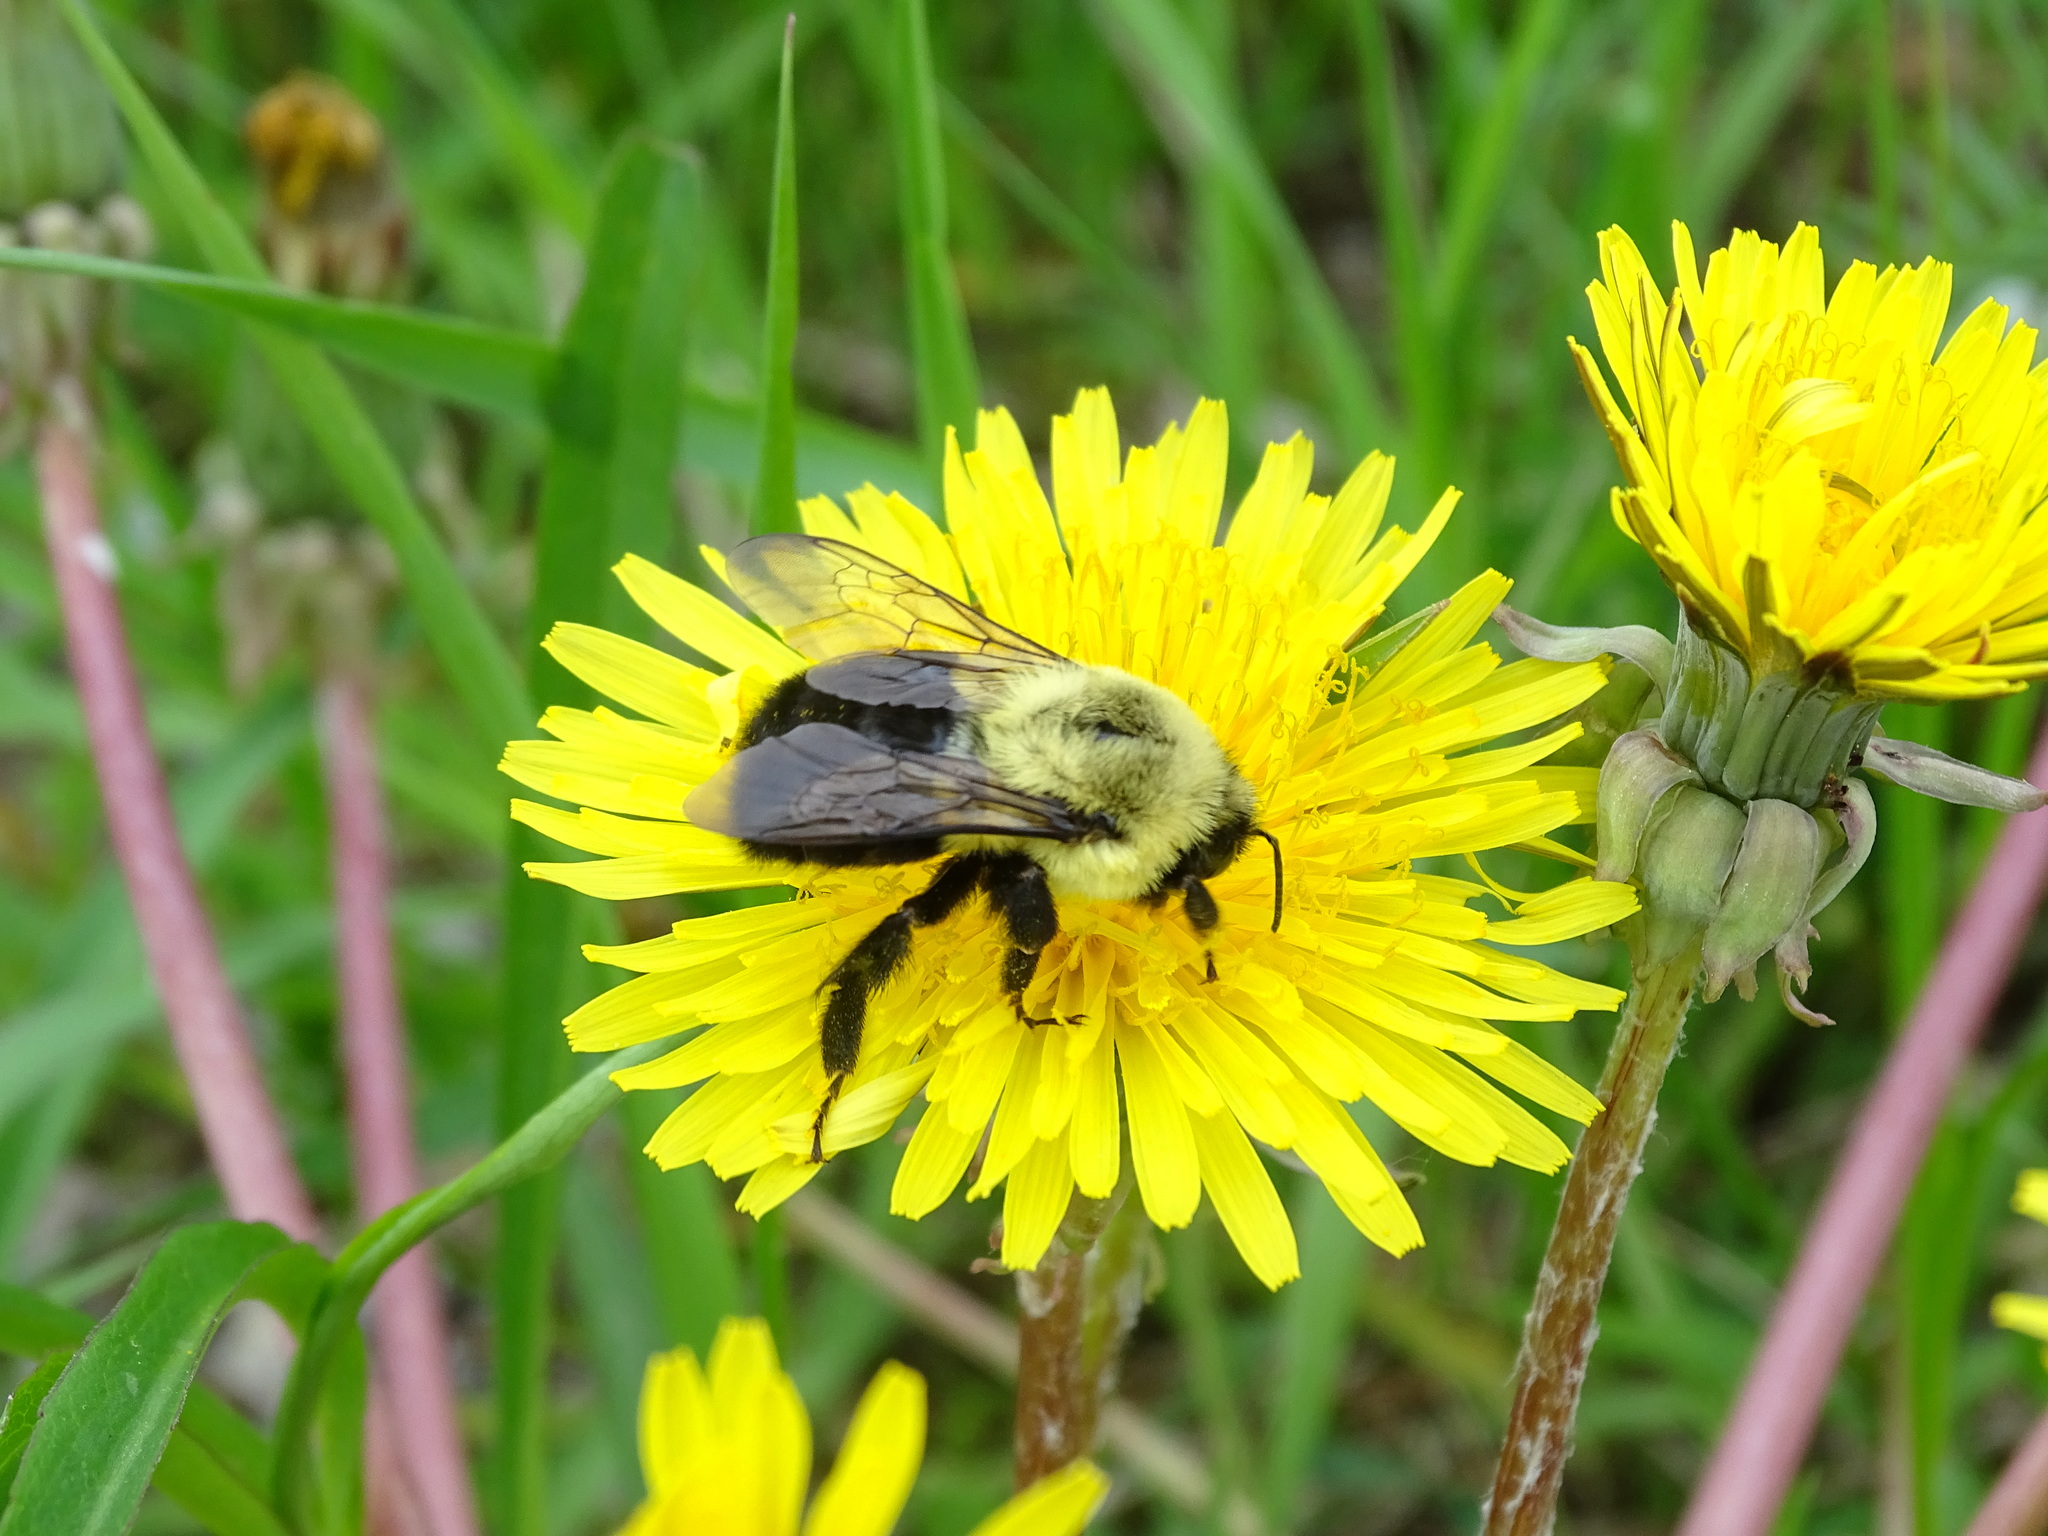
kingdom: Animalia
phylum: Arthropoda
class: Insecta
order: Hymenoptera
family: Apidae
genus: Bombus
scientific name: Bombus impatiens
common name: Common eastern bumble bee
